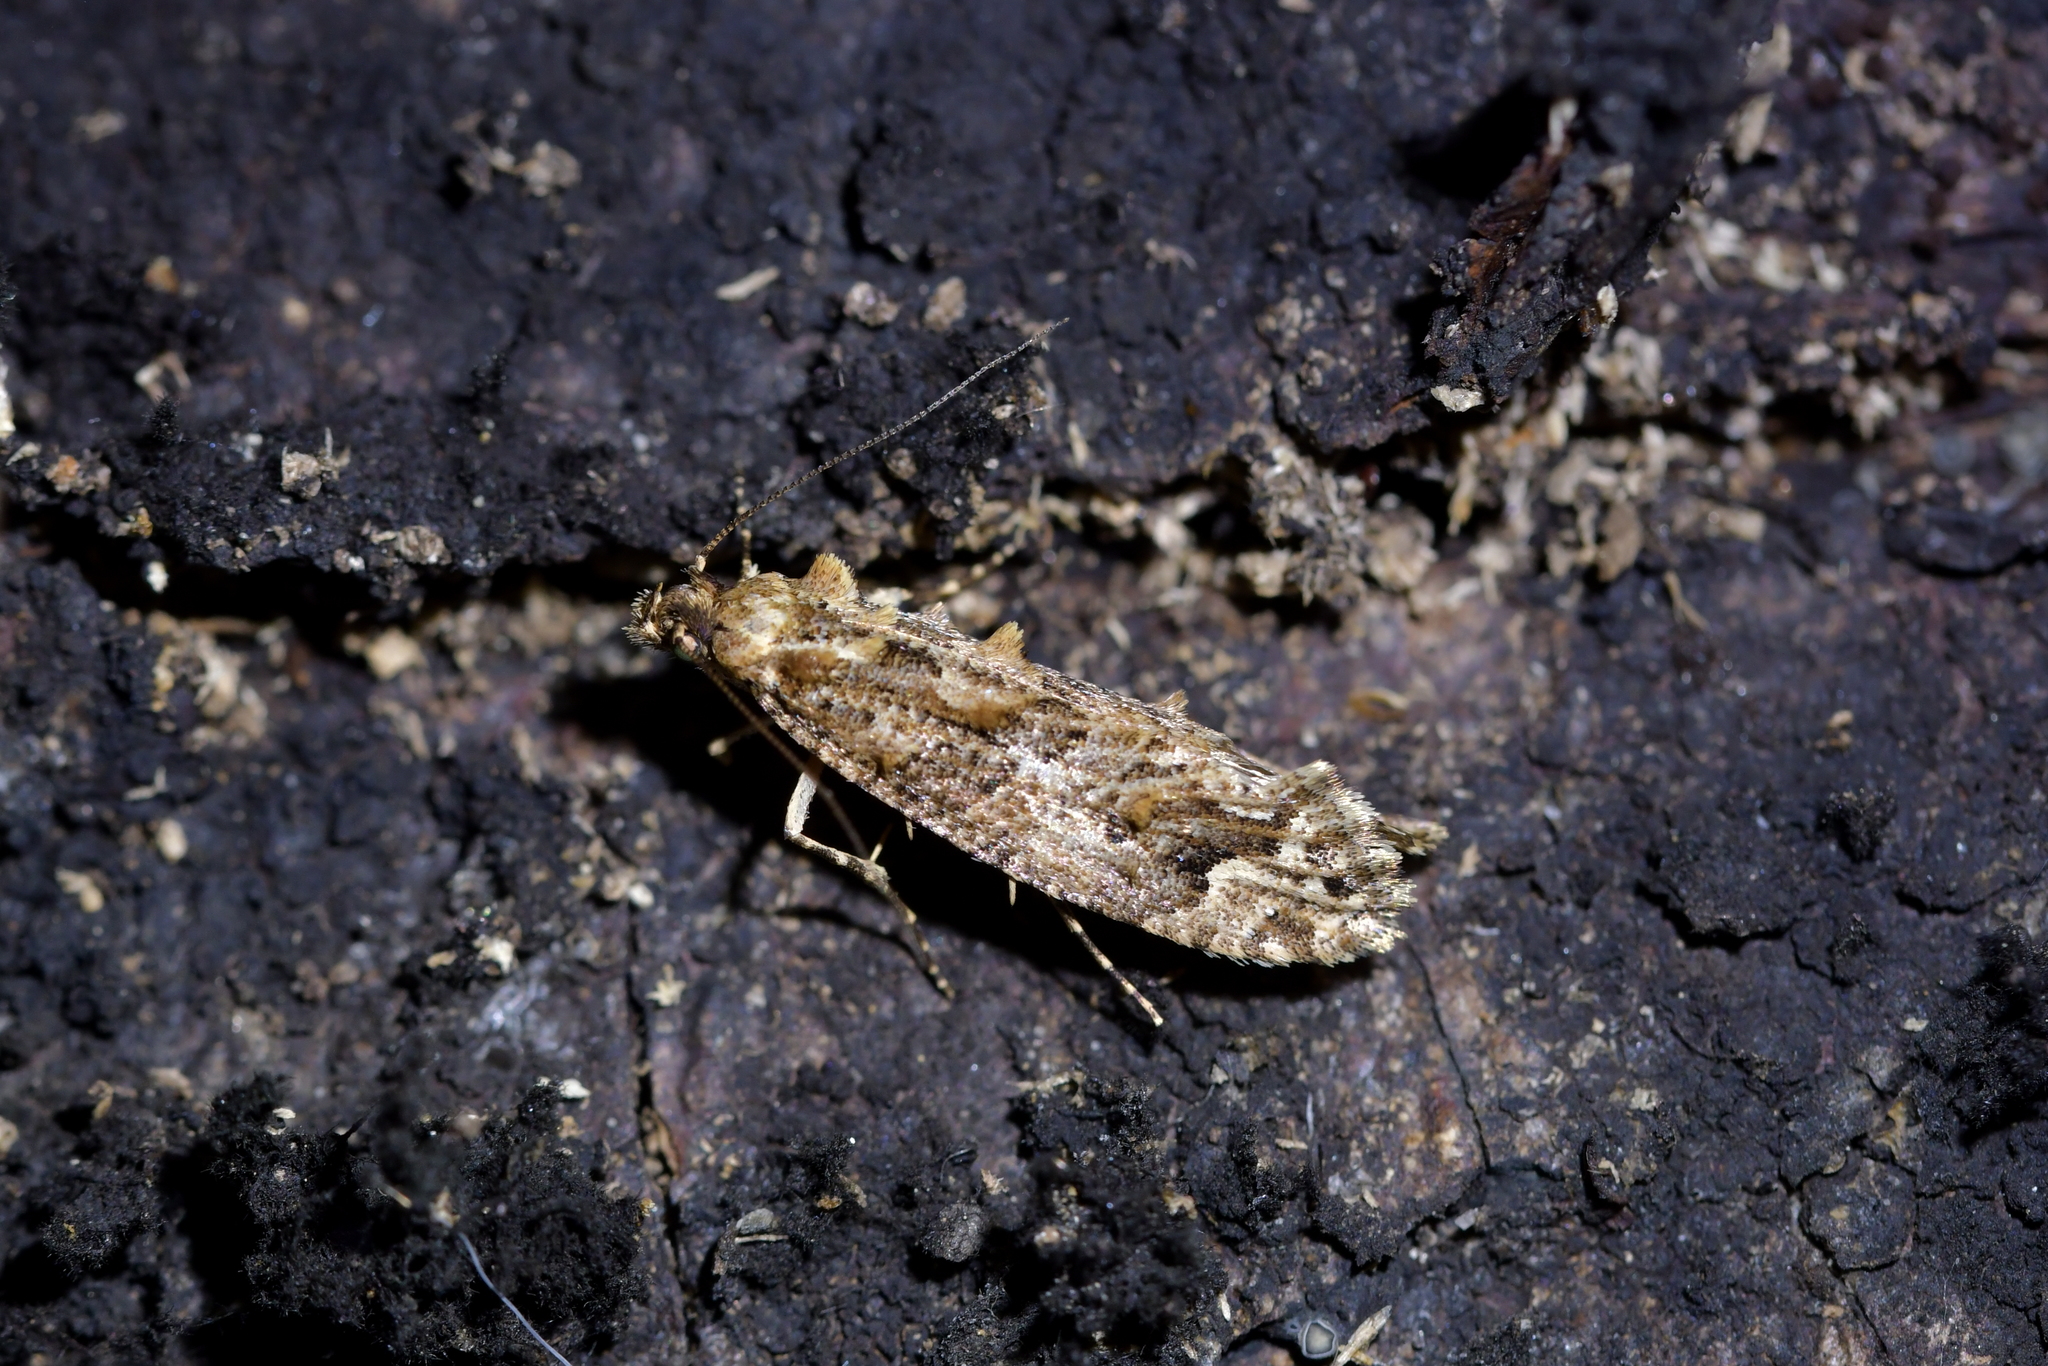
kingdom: Animalia
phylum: Arthropoda
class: Insecta
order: Lepidoptera
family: Tineidae
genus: Lysiphragma
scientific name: Lysiphragma epixyla
